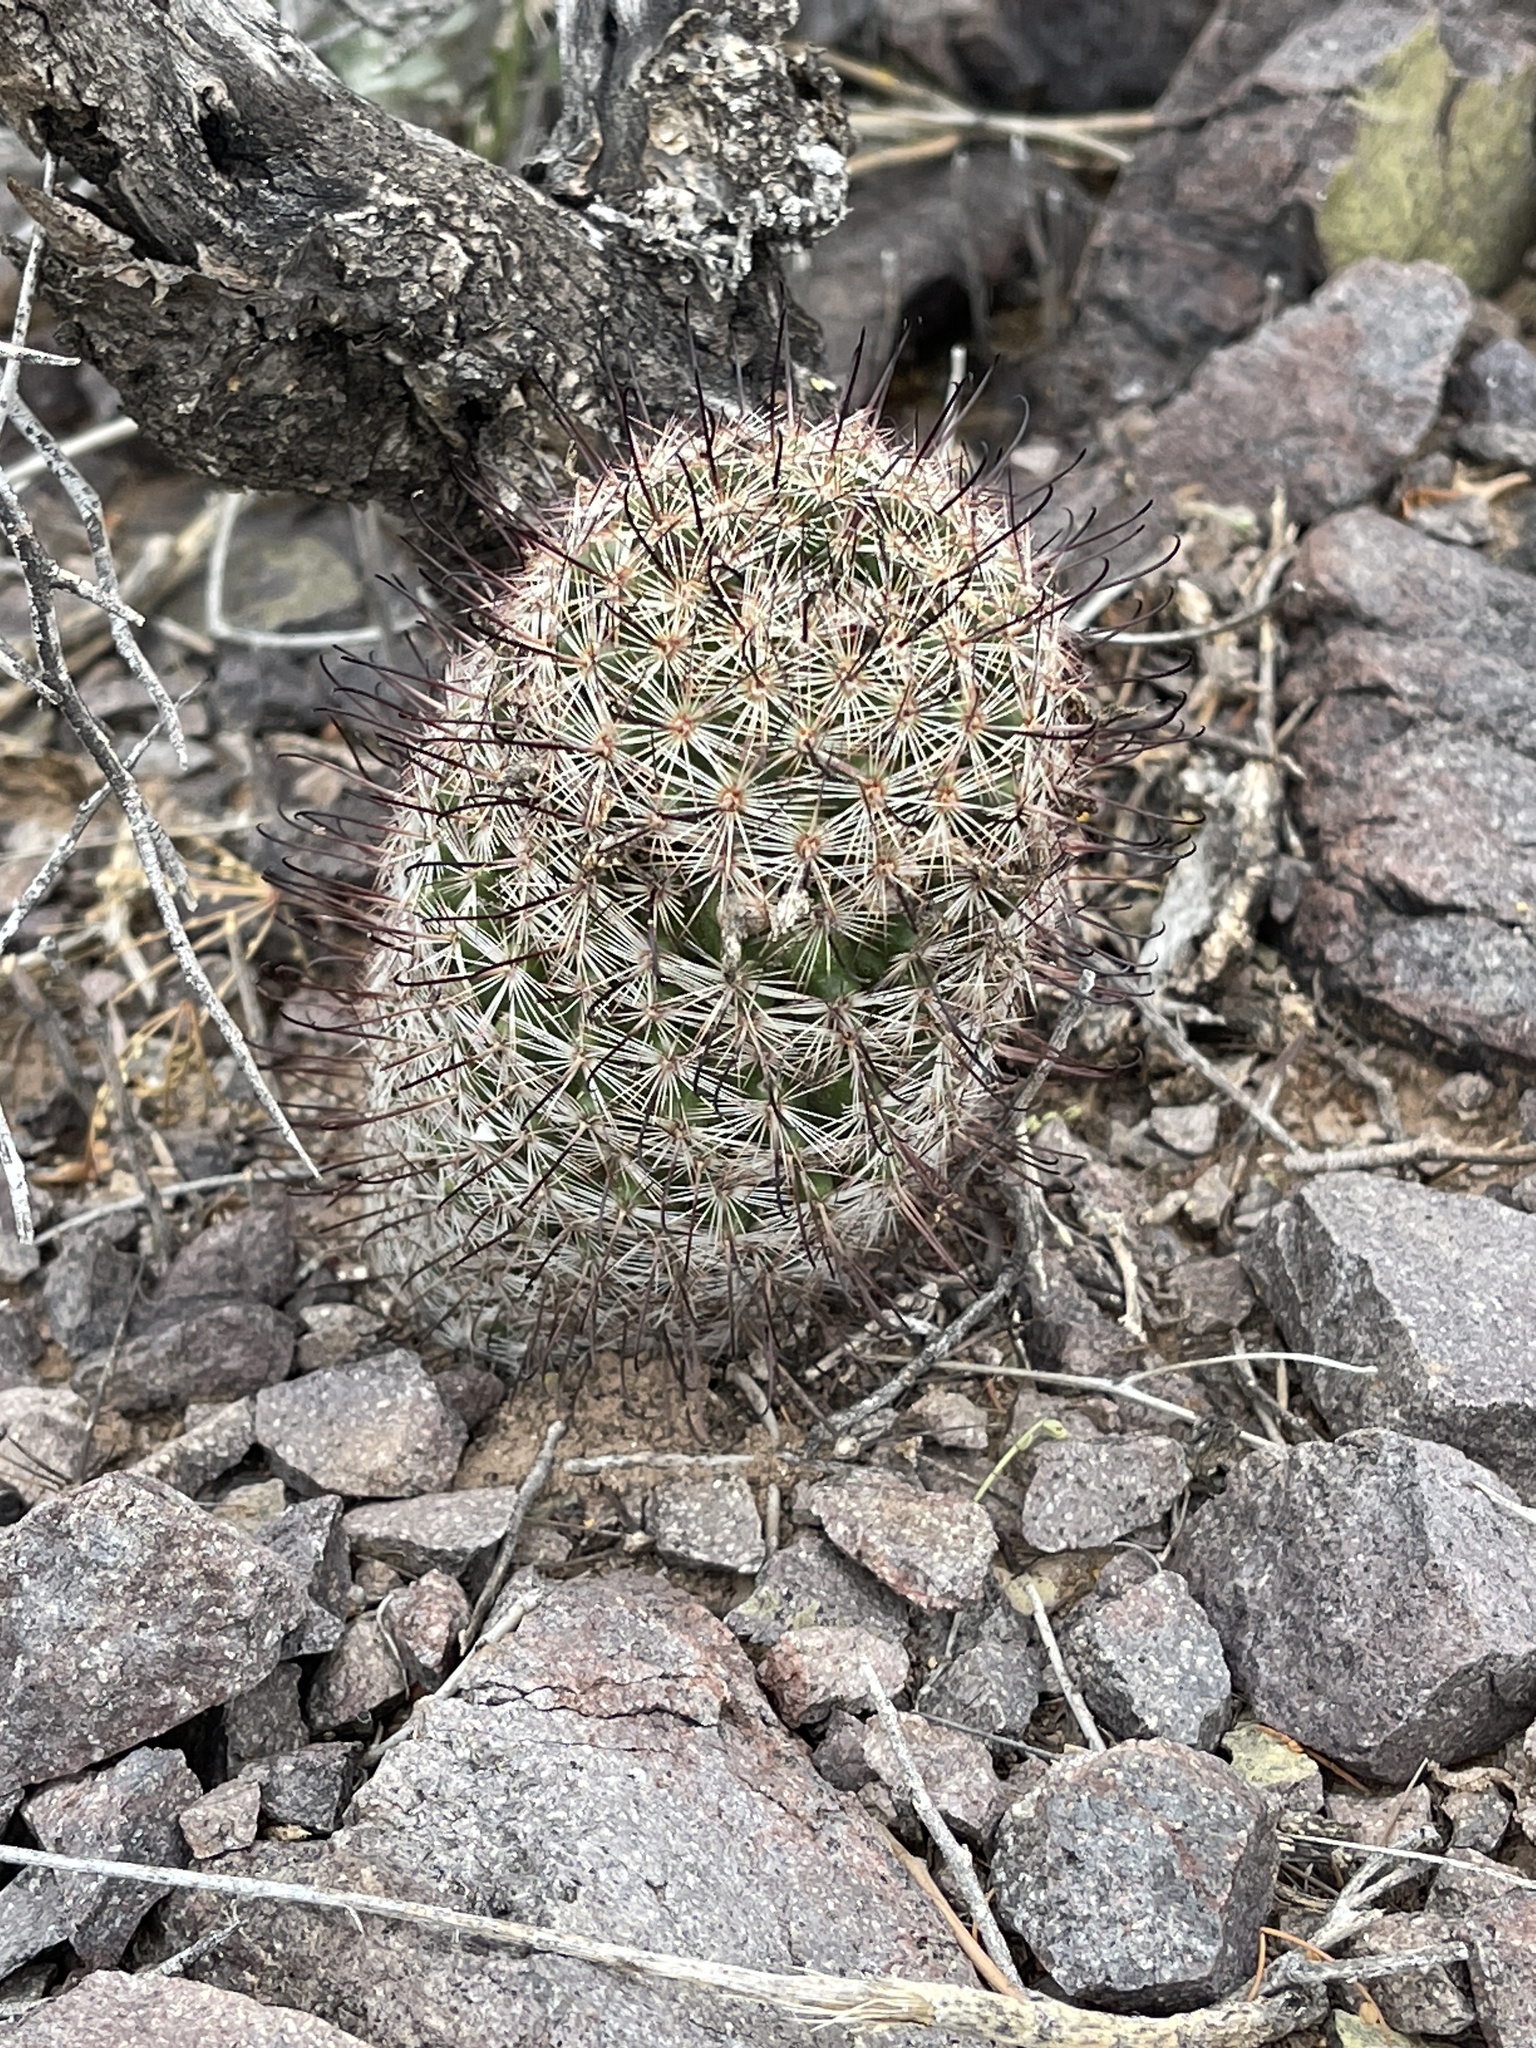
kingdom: Plantae
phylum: Tracheophyta
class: Magnoliopsida
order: Caryophyllales
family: Cactaceae
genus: Cochemiea
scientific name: Cochemiea grahamii
